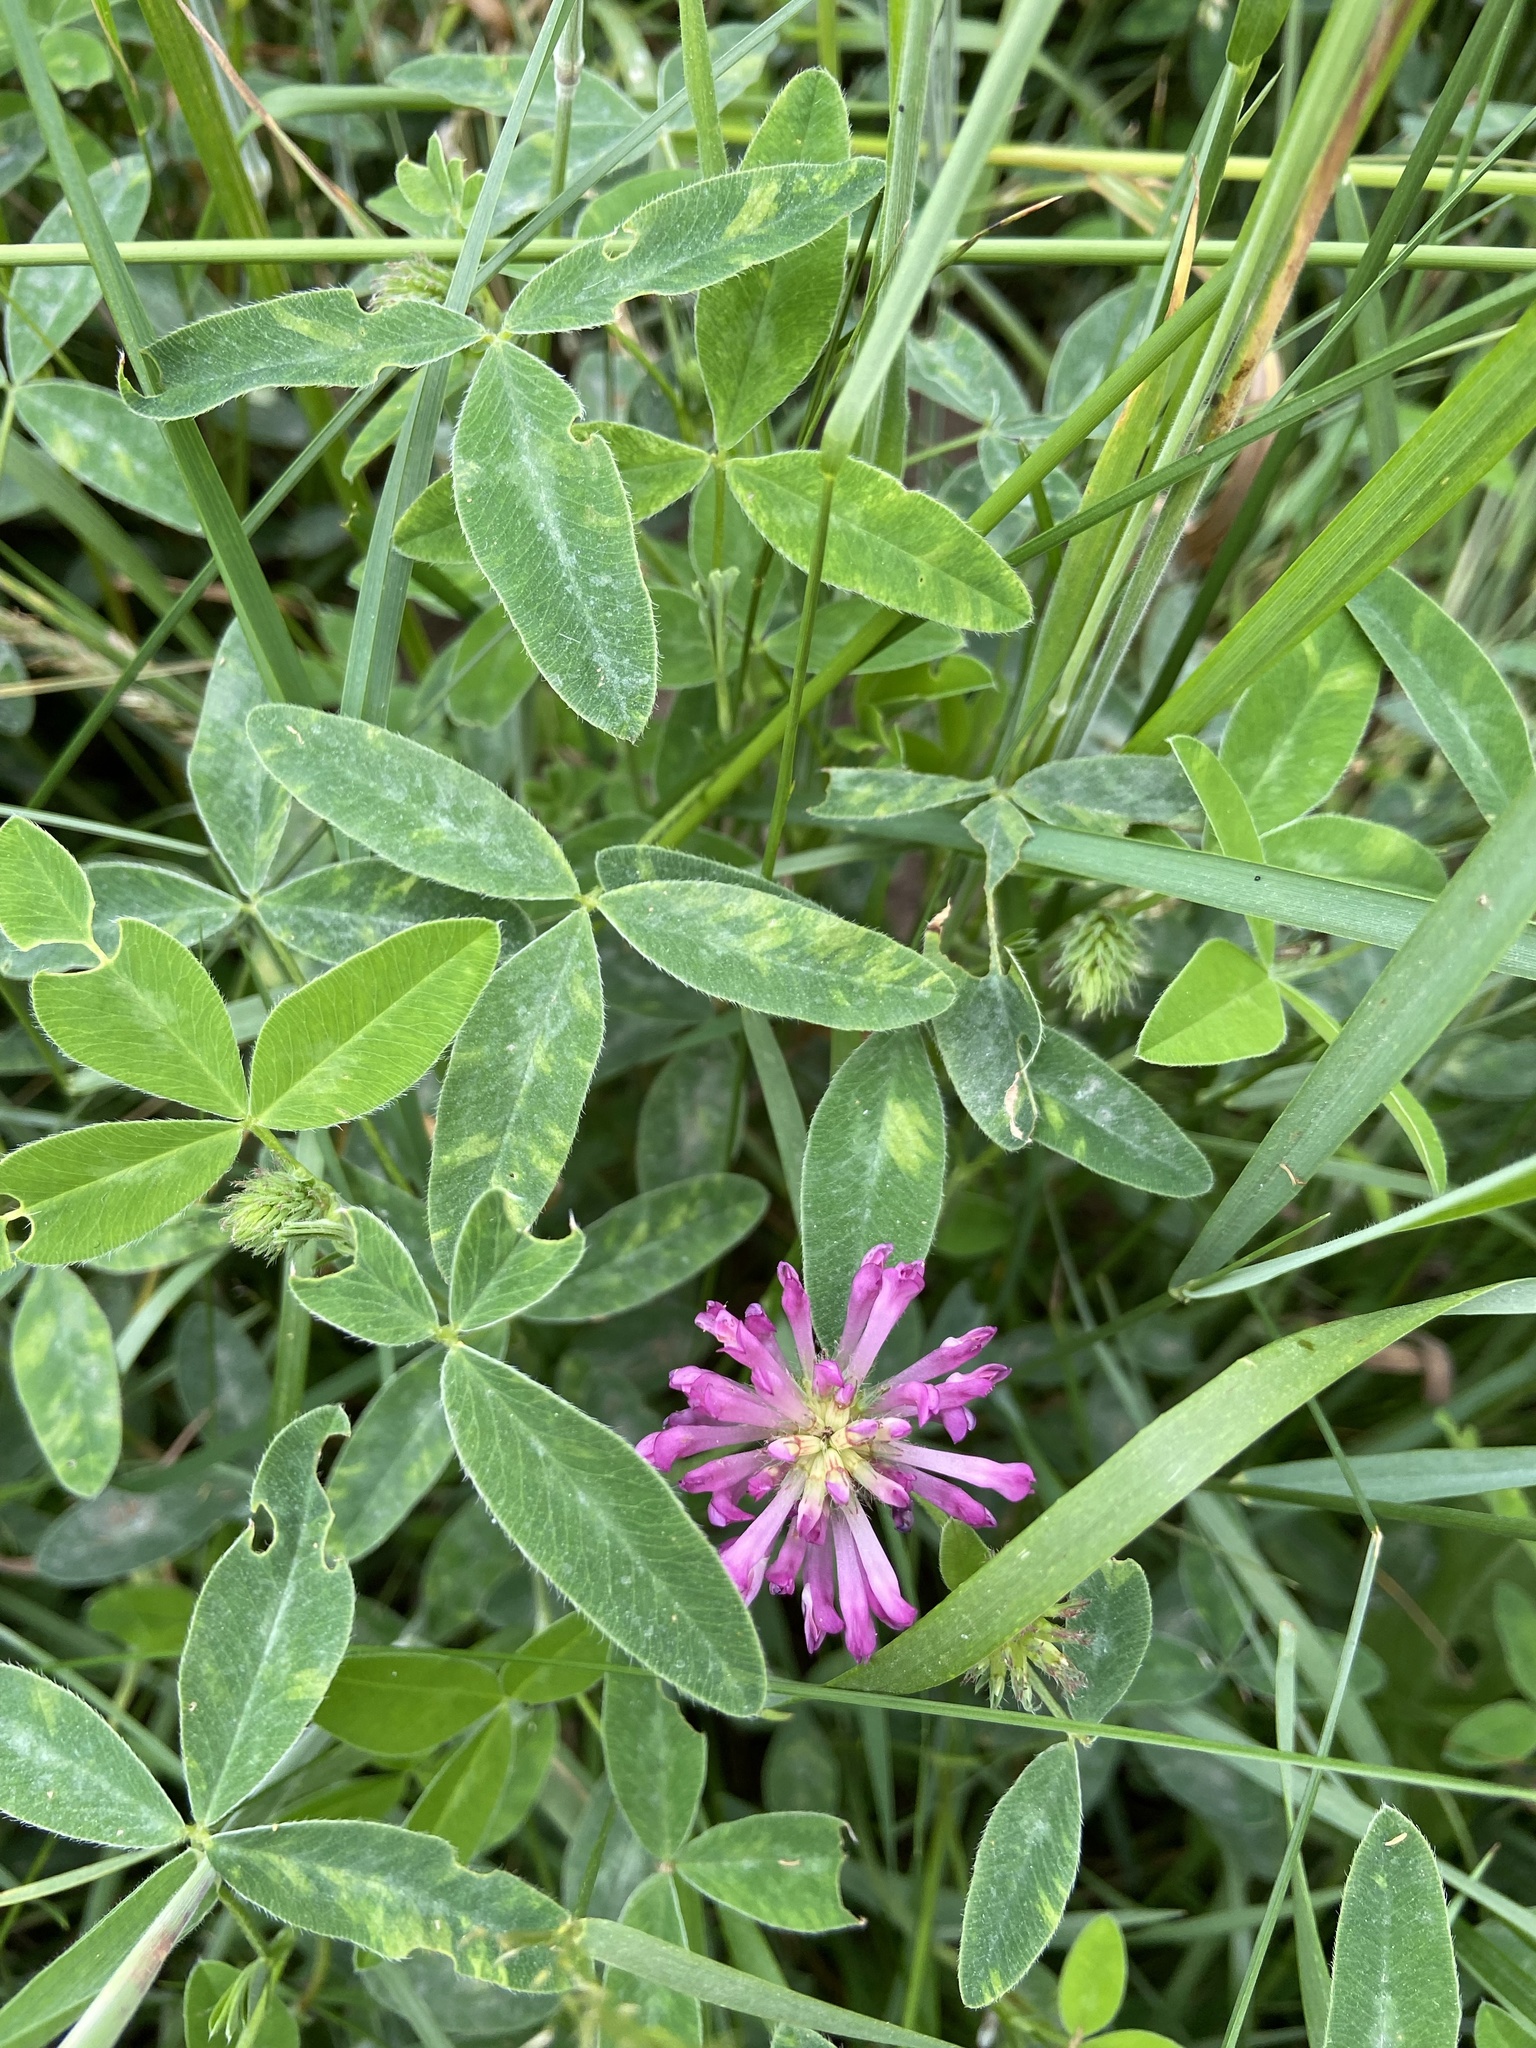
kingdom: Plantae
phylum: Tracheophyta
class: Magnoliopsida
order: Fabales
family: Fabaceae
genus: Trifolium
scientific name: Trifolium medium
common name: Zigzag clover
